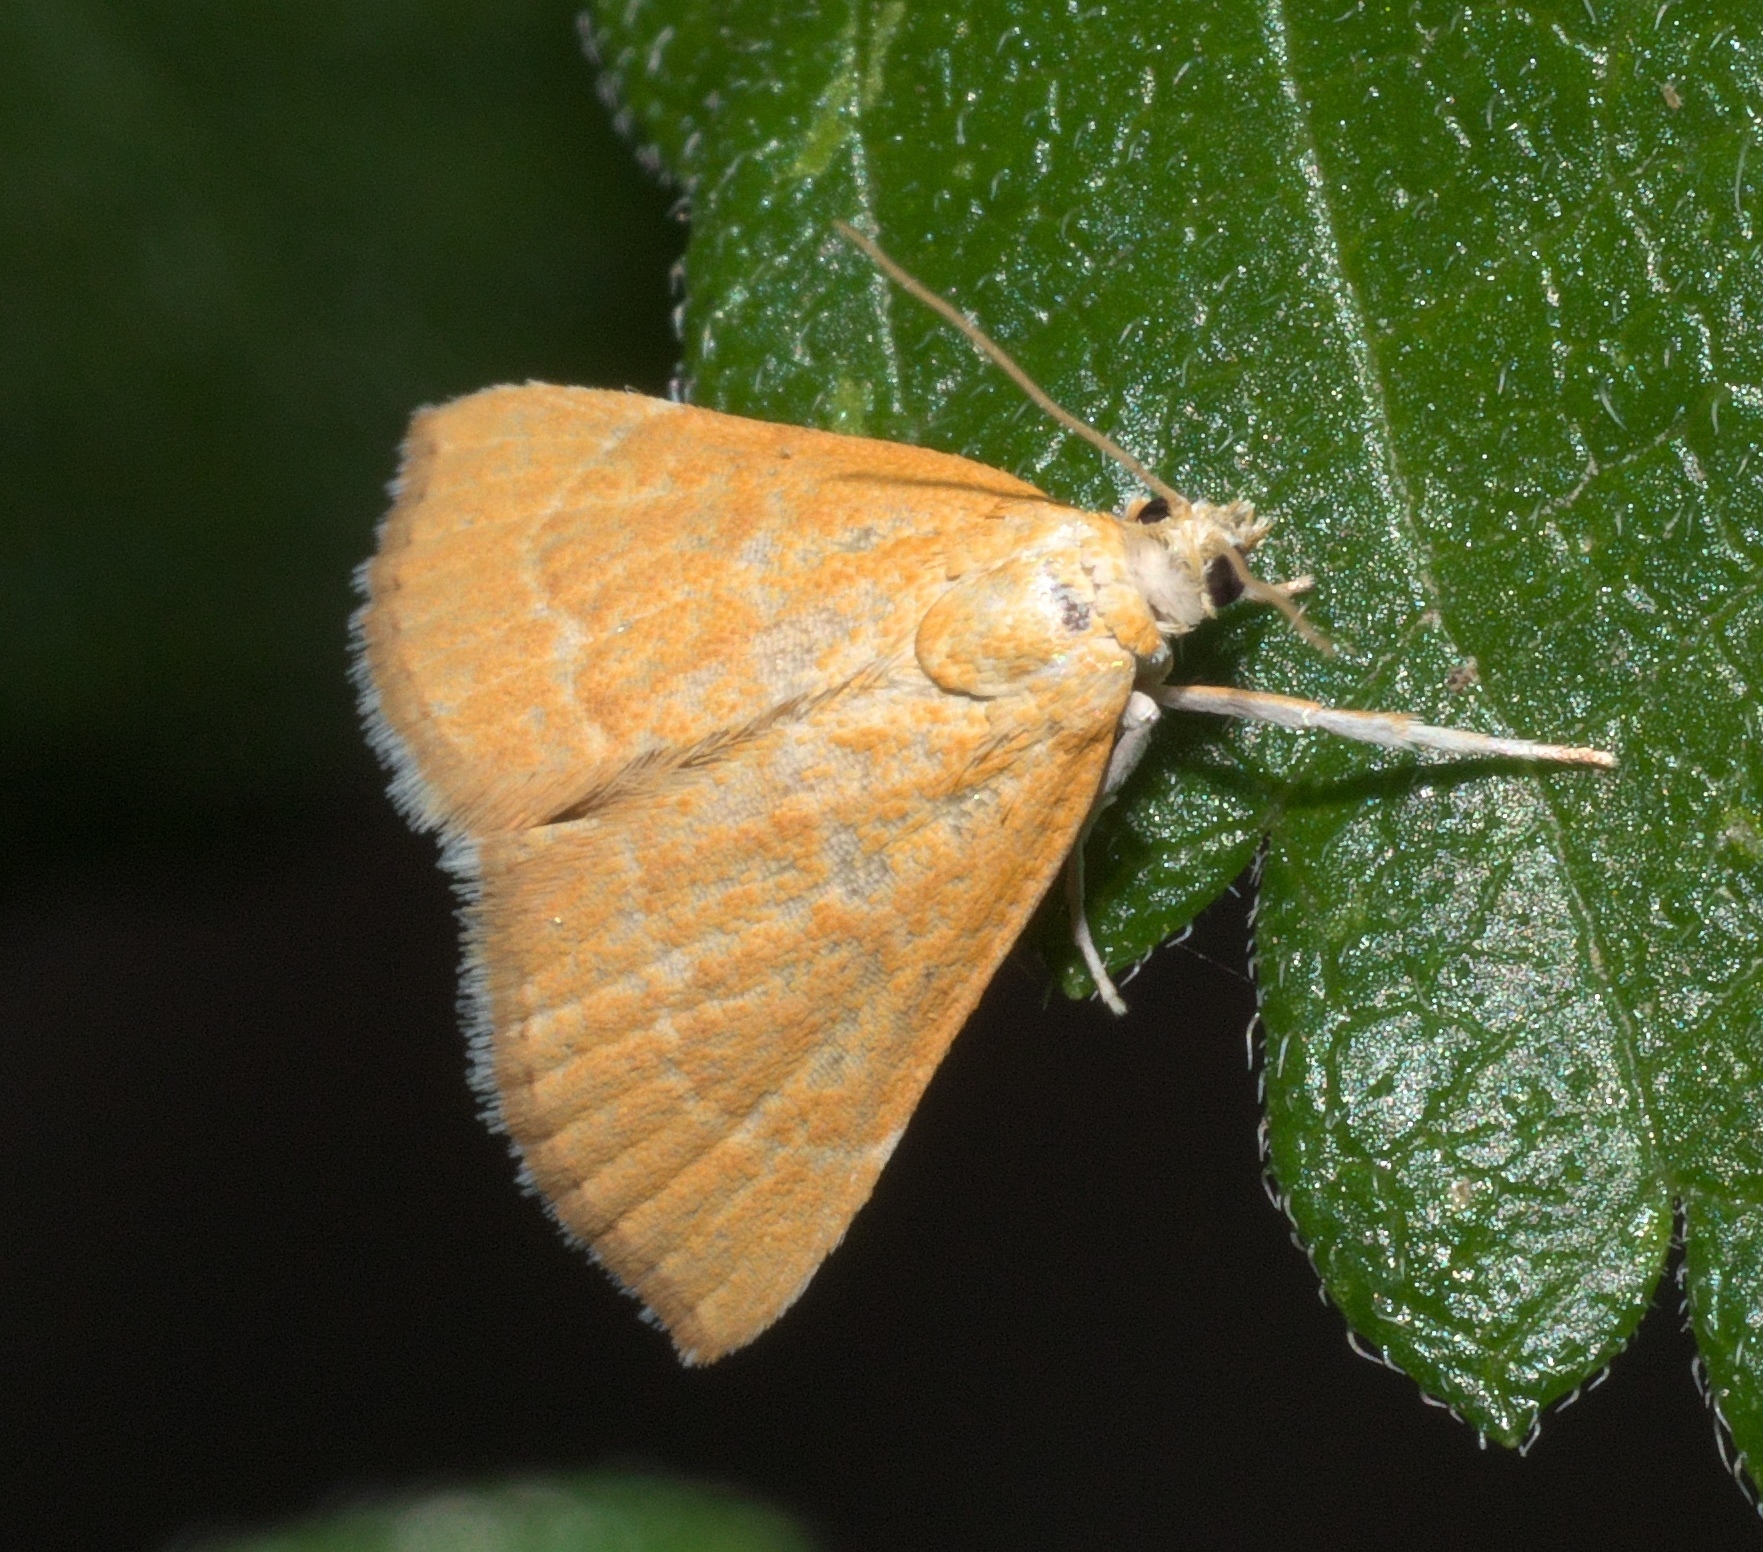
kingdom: Animalia
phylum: Arthropoda
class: Insecta
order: Lepidoptera
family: Crambidae
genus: Glaphyria
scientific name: Glaphyria invisalis
